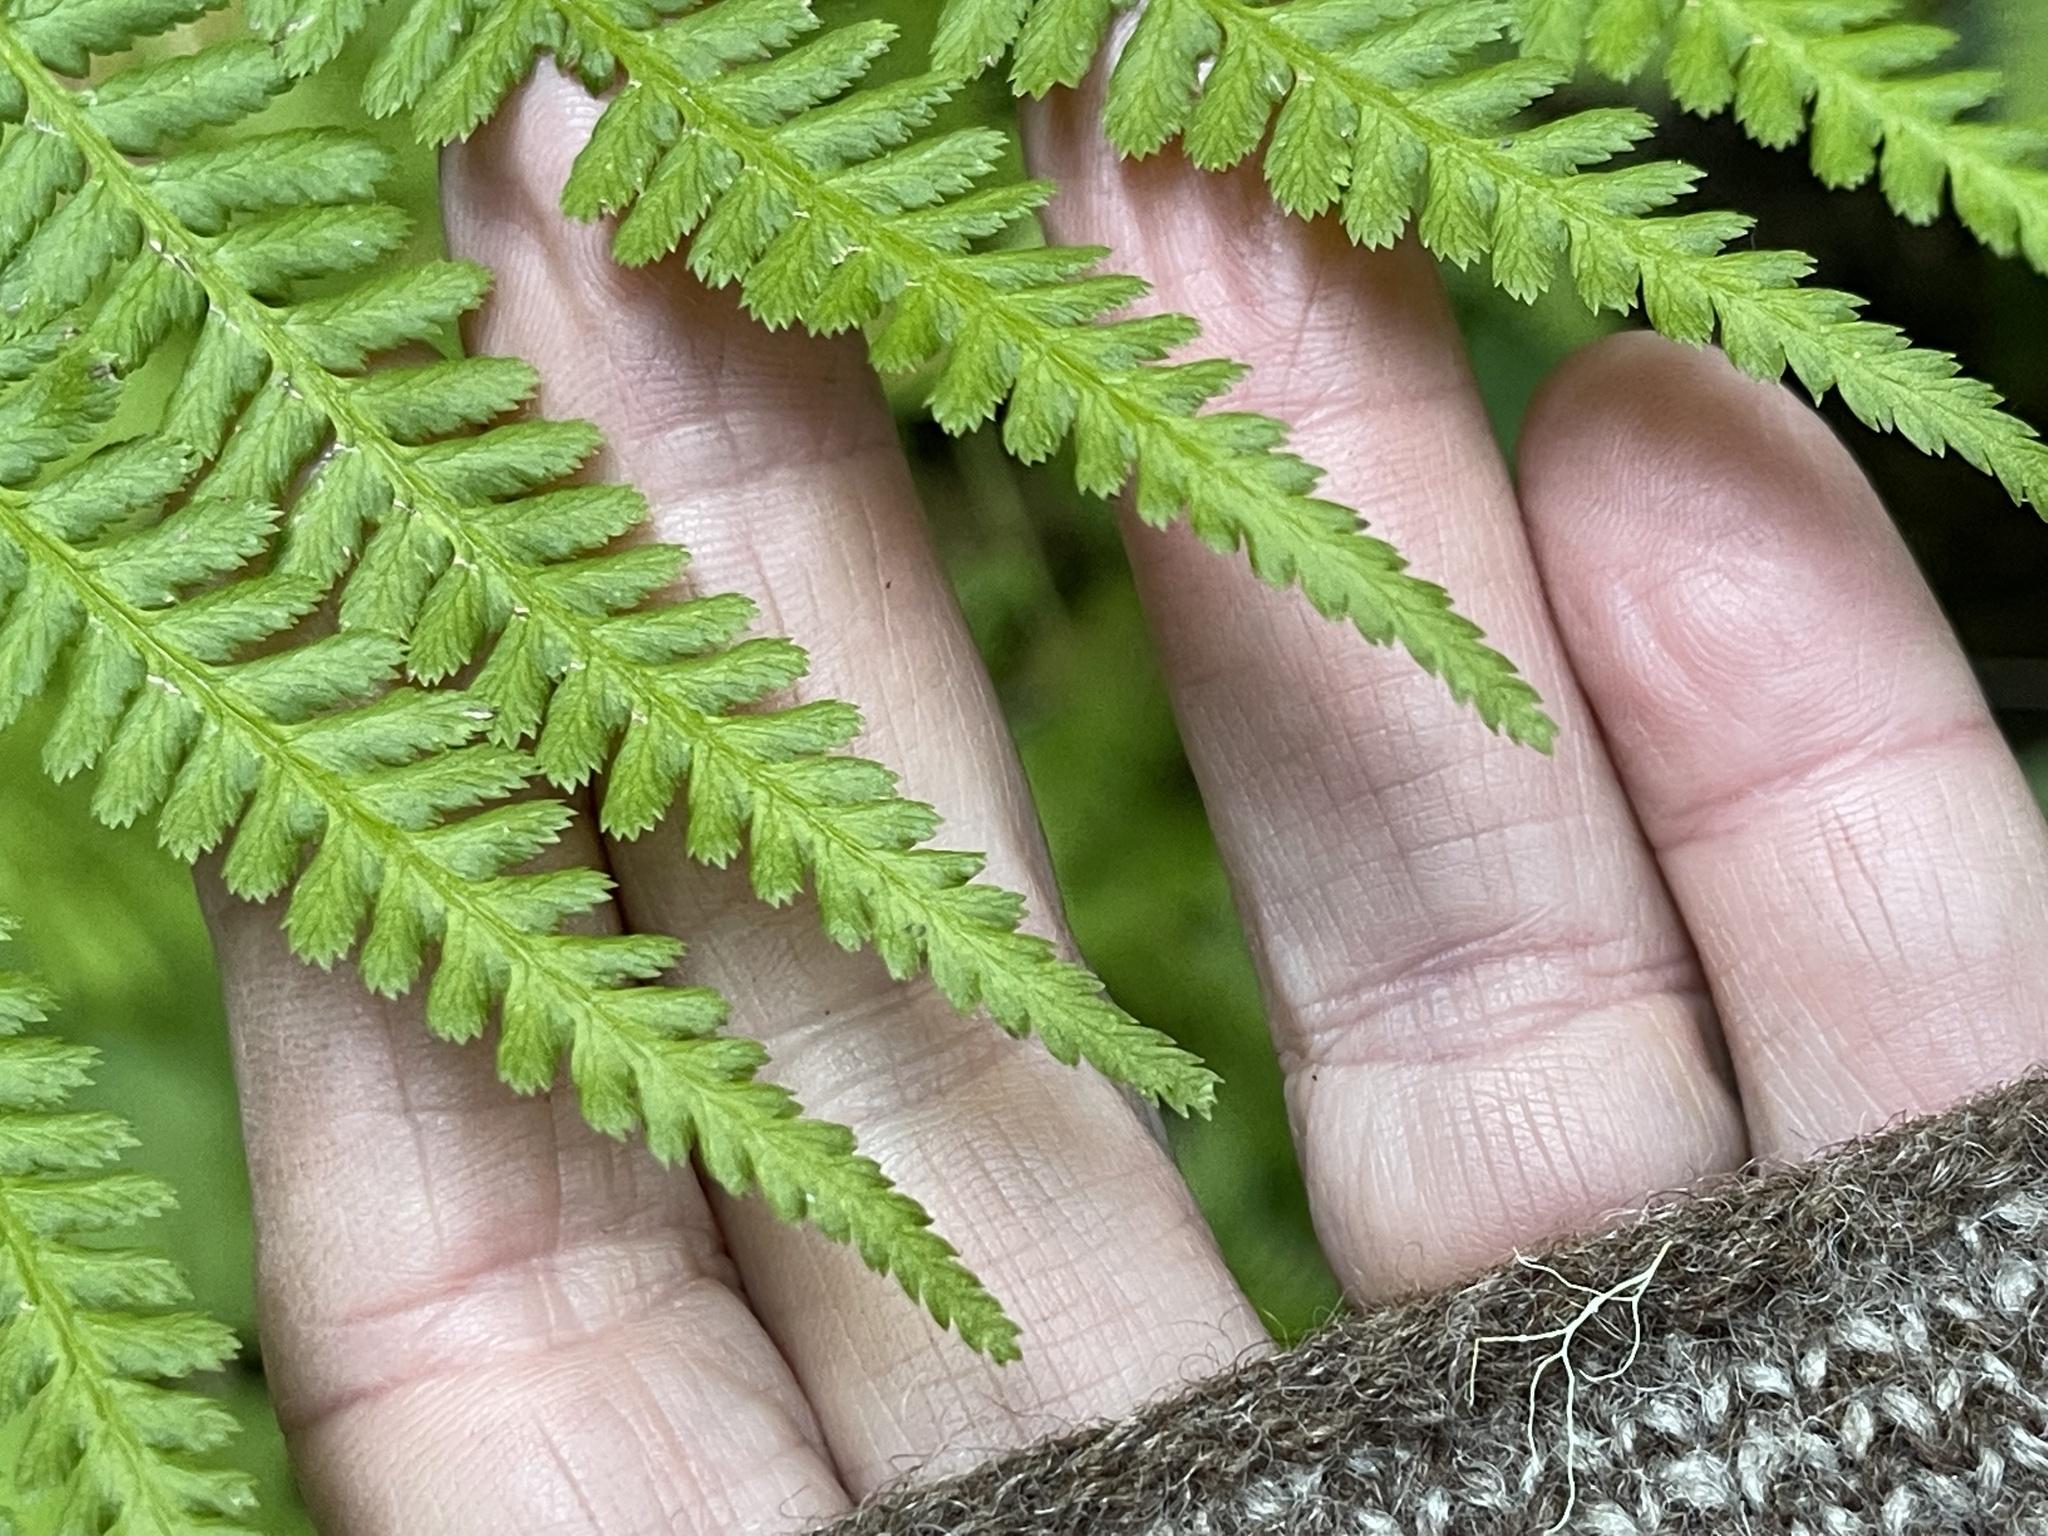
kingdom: Plantae
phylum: Tracheophyta
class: Polypodiopsida
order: Polypodiales
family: Athyriaceae
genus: Athyrium
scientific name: Athyrium filix-femina
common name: Lady fern
